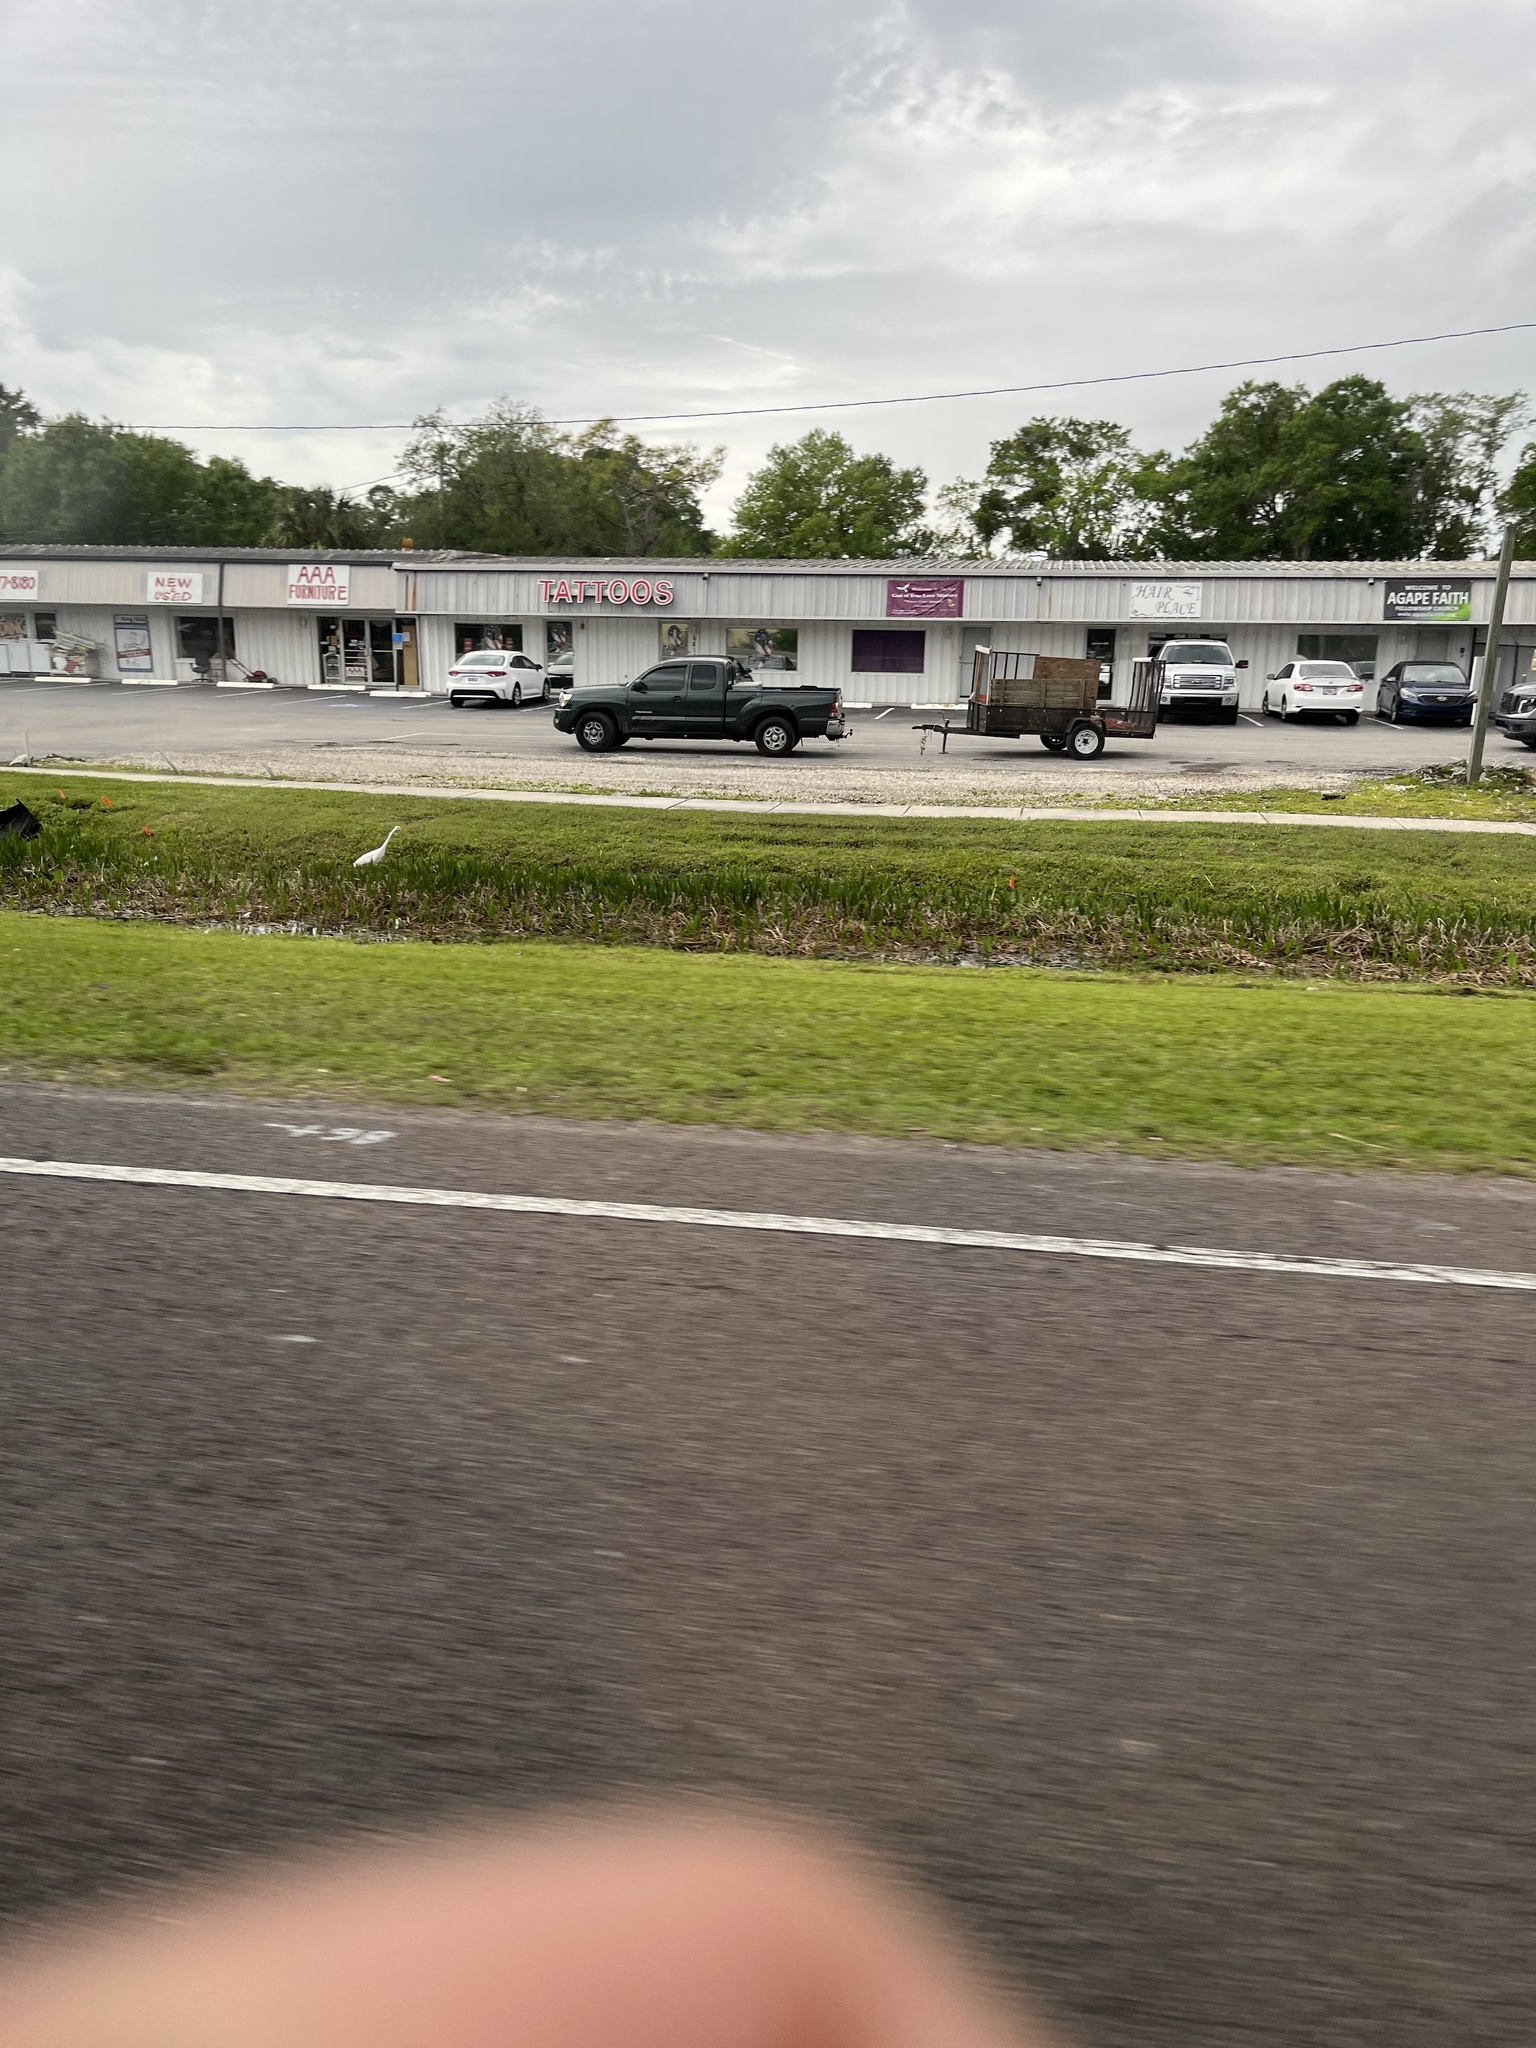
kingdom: Animalia
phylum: Chordata
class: Aves
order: Pelecaniformes
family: Ardeidae
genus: Ardea
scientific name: Ardea alba
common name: Great egret
